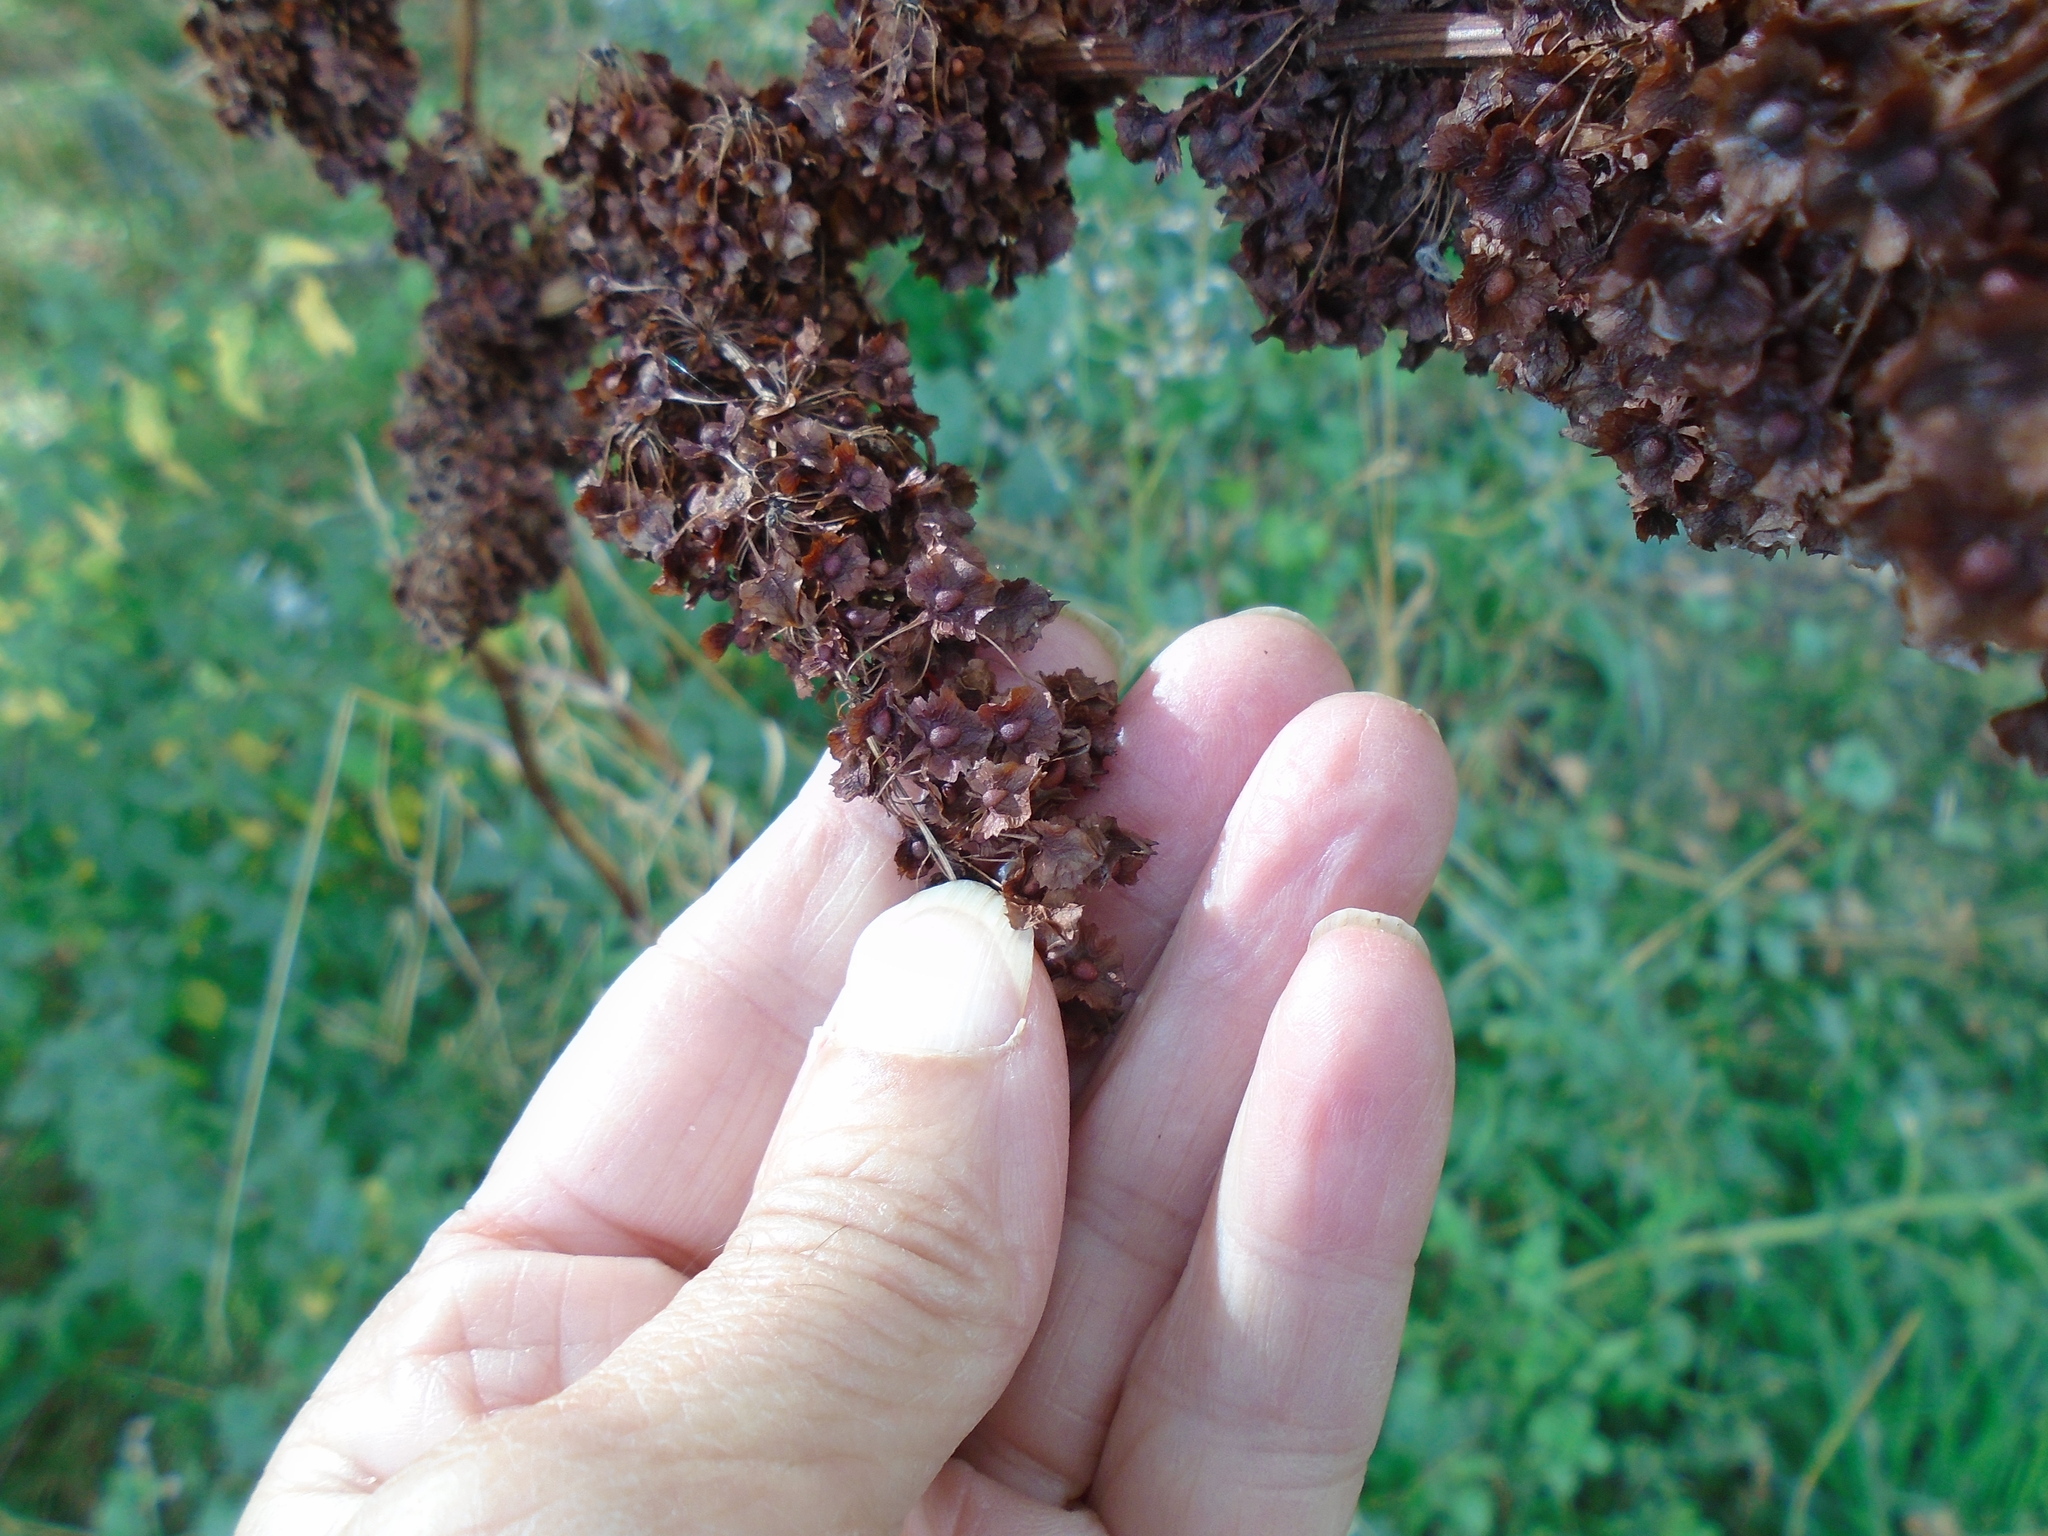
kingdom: Plantae
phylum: Tracheophyta
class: Magnoliopsida
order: Caryophyllales
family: Polygonaceae
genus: Rumex
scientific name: Rumex cristatus
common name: Greek dock
